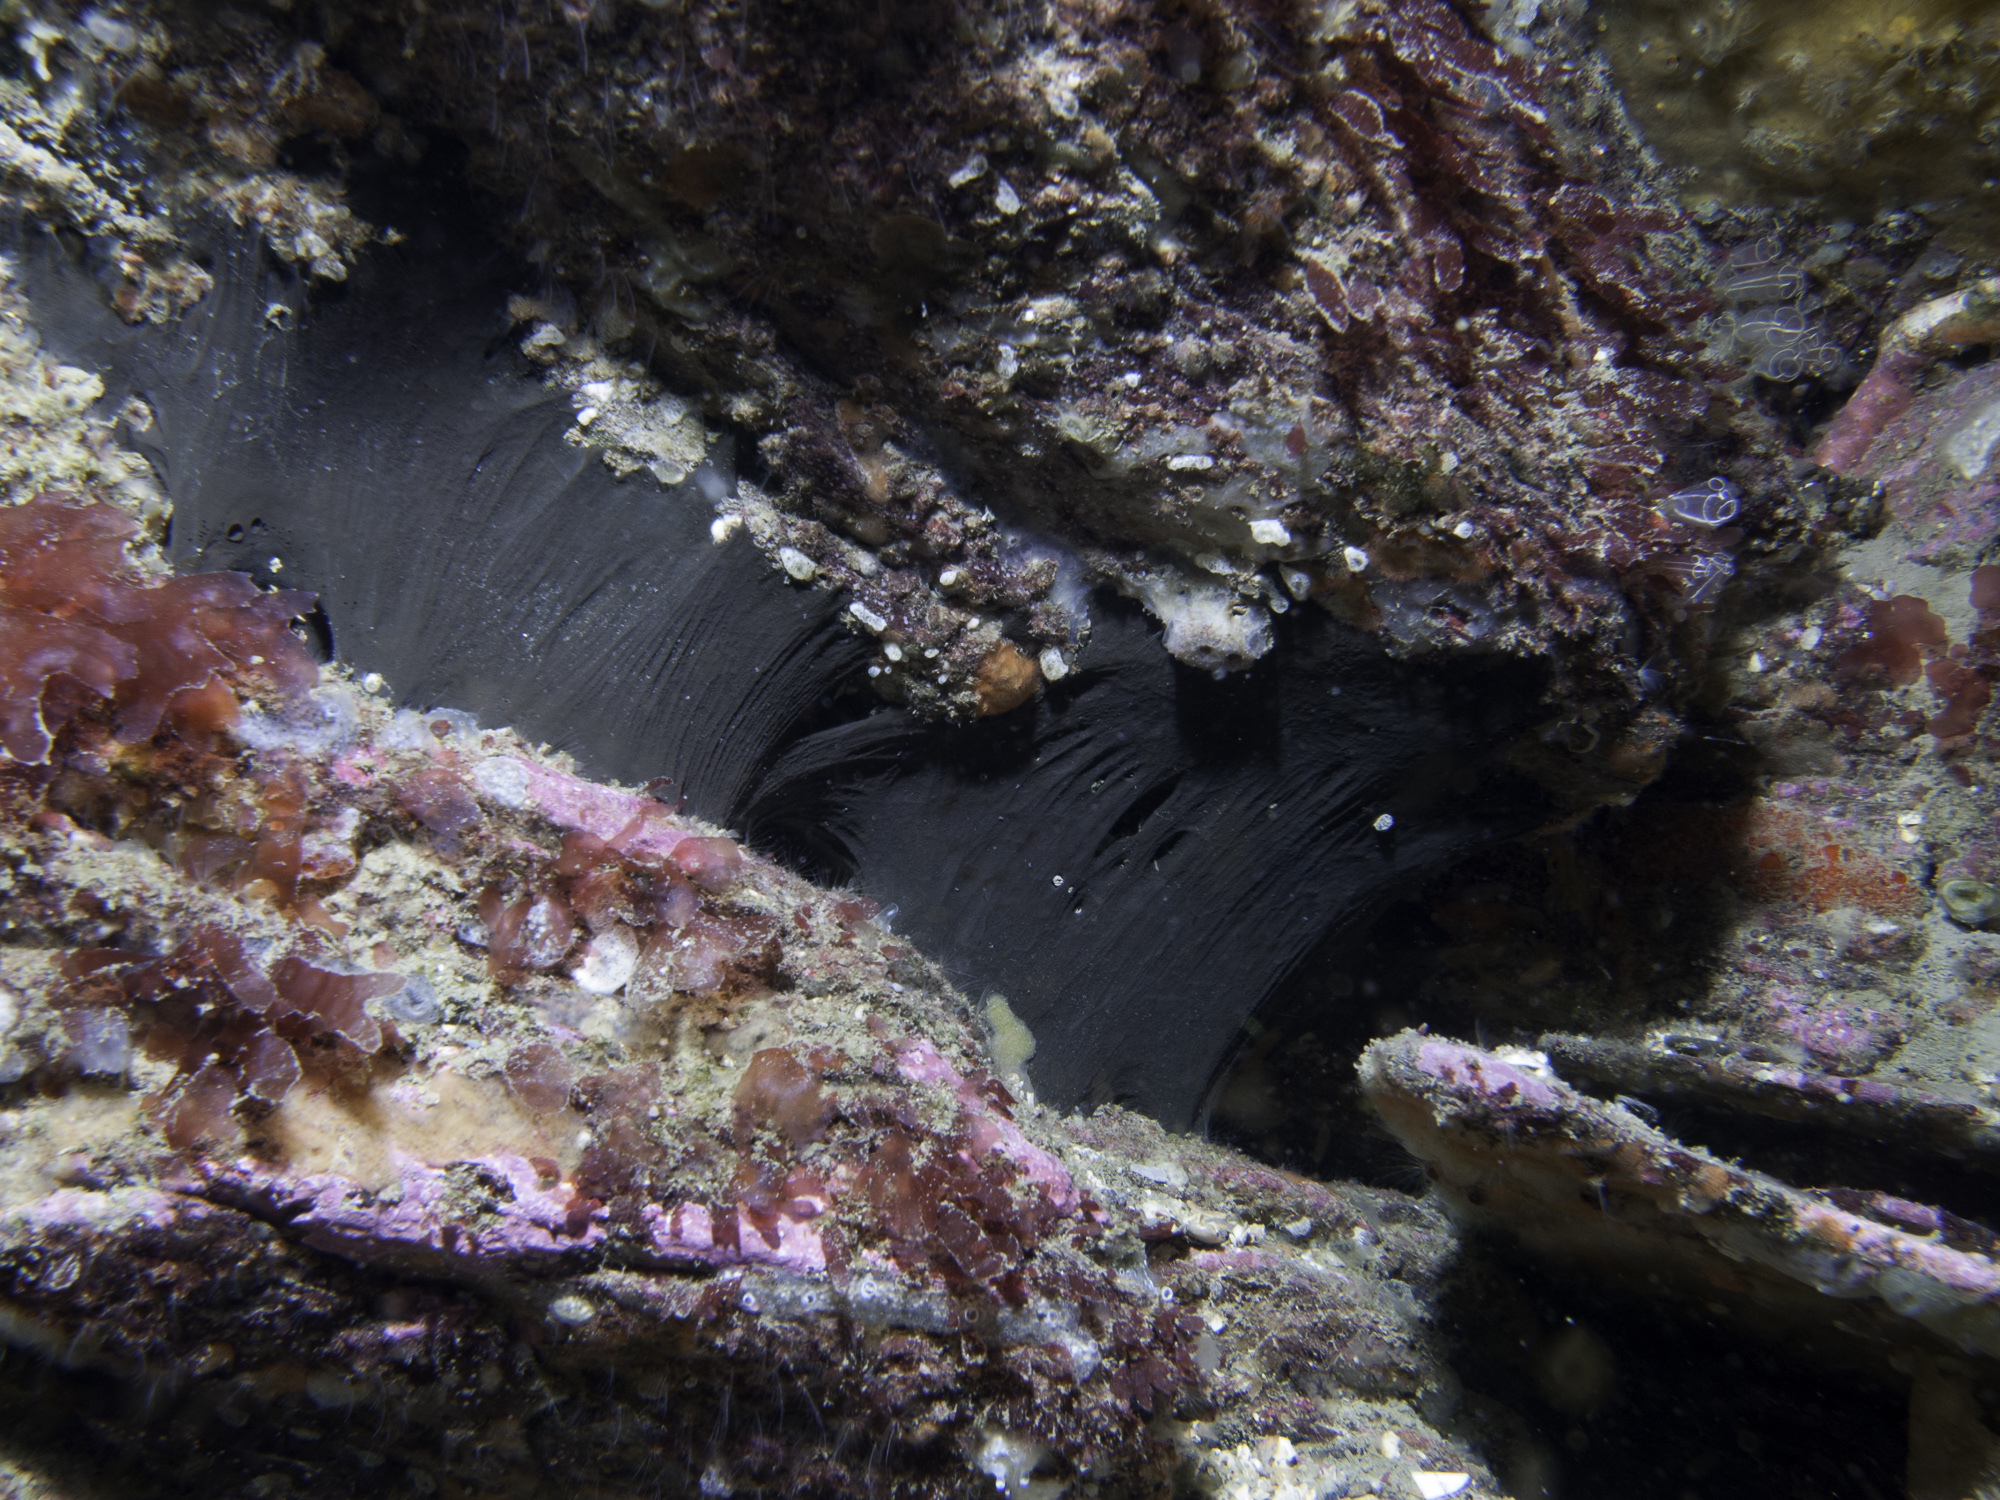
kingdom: Animalia
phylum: Porifera
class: Demospongiae
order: Tetractinellida
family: Ancorinidae
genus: Dercitus
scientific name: Dercitus bucklandi
